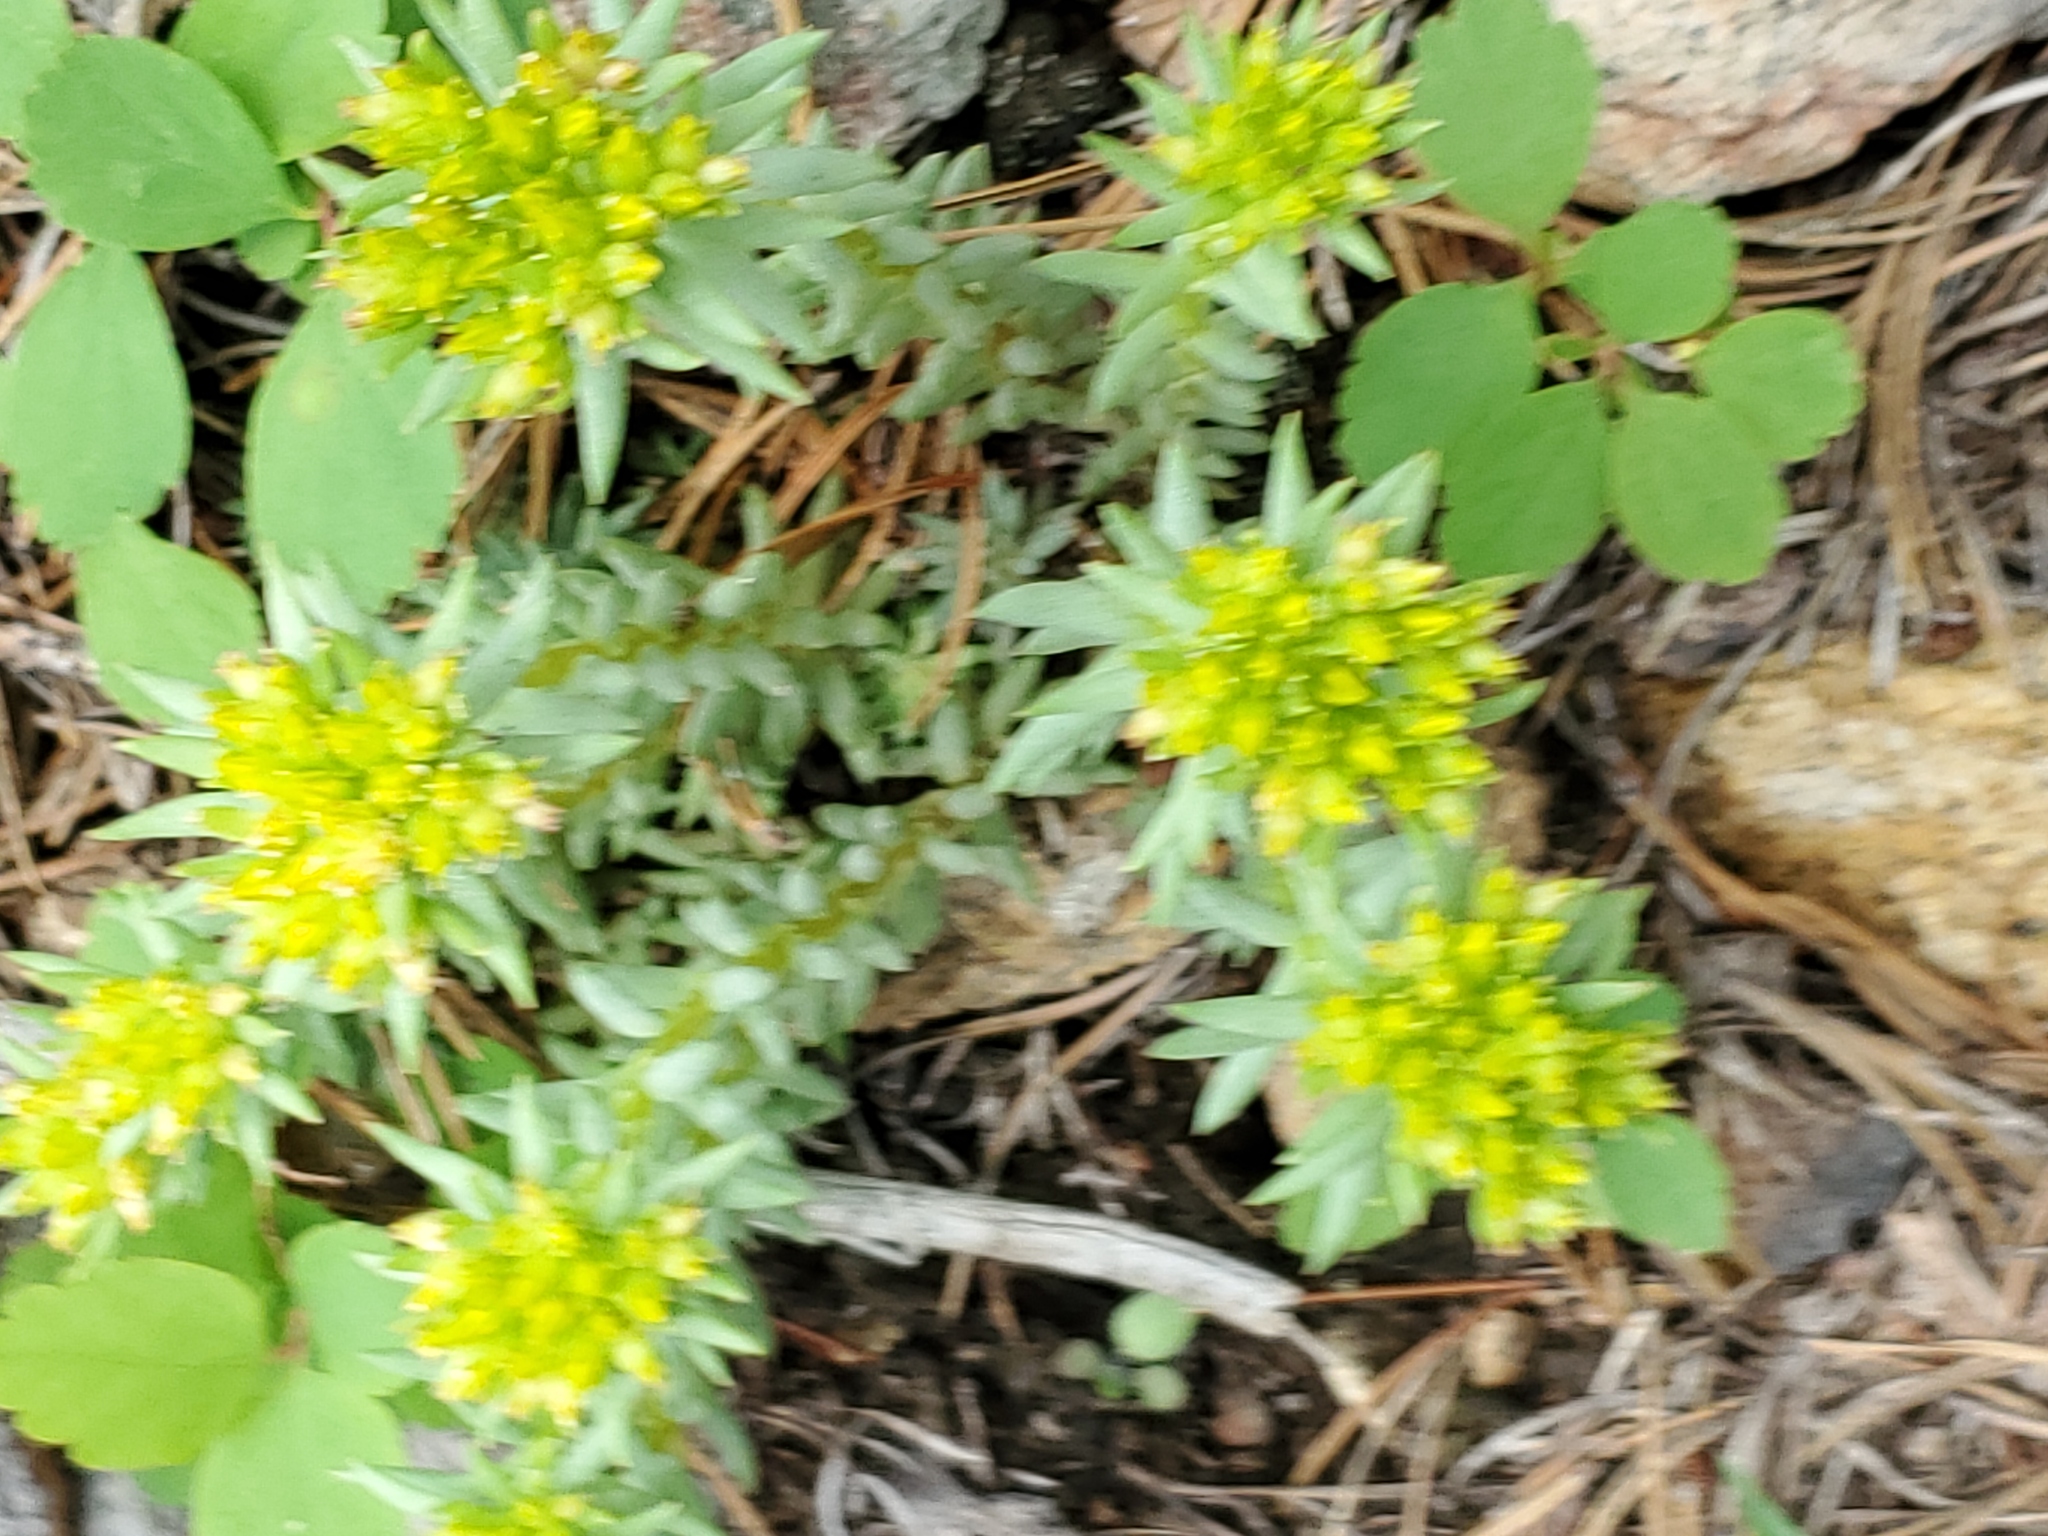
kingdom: Plantae
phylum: Tracheophyta
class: Magnoliopsida
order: Saxifragales
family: Crassulaceae
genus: Sedum
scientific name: Sedum lanceolatum
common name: Common stonecrop
